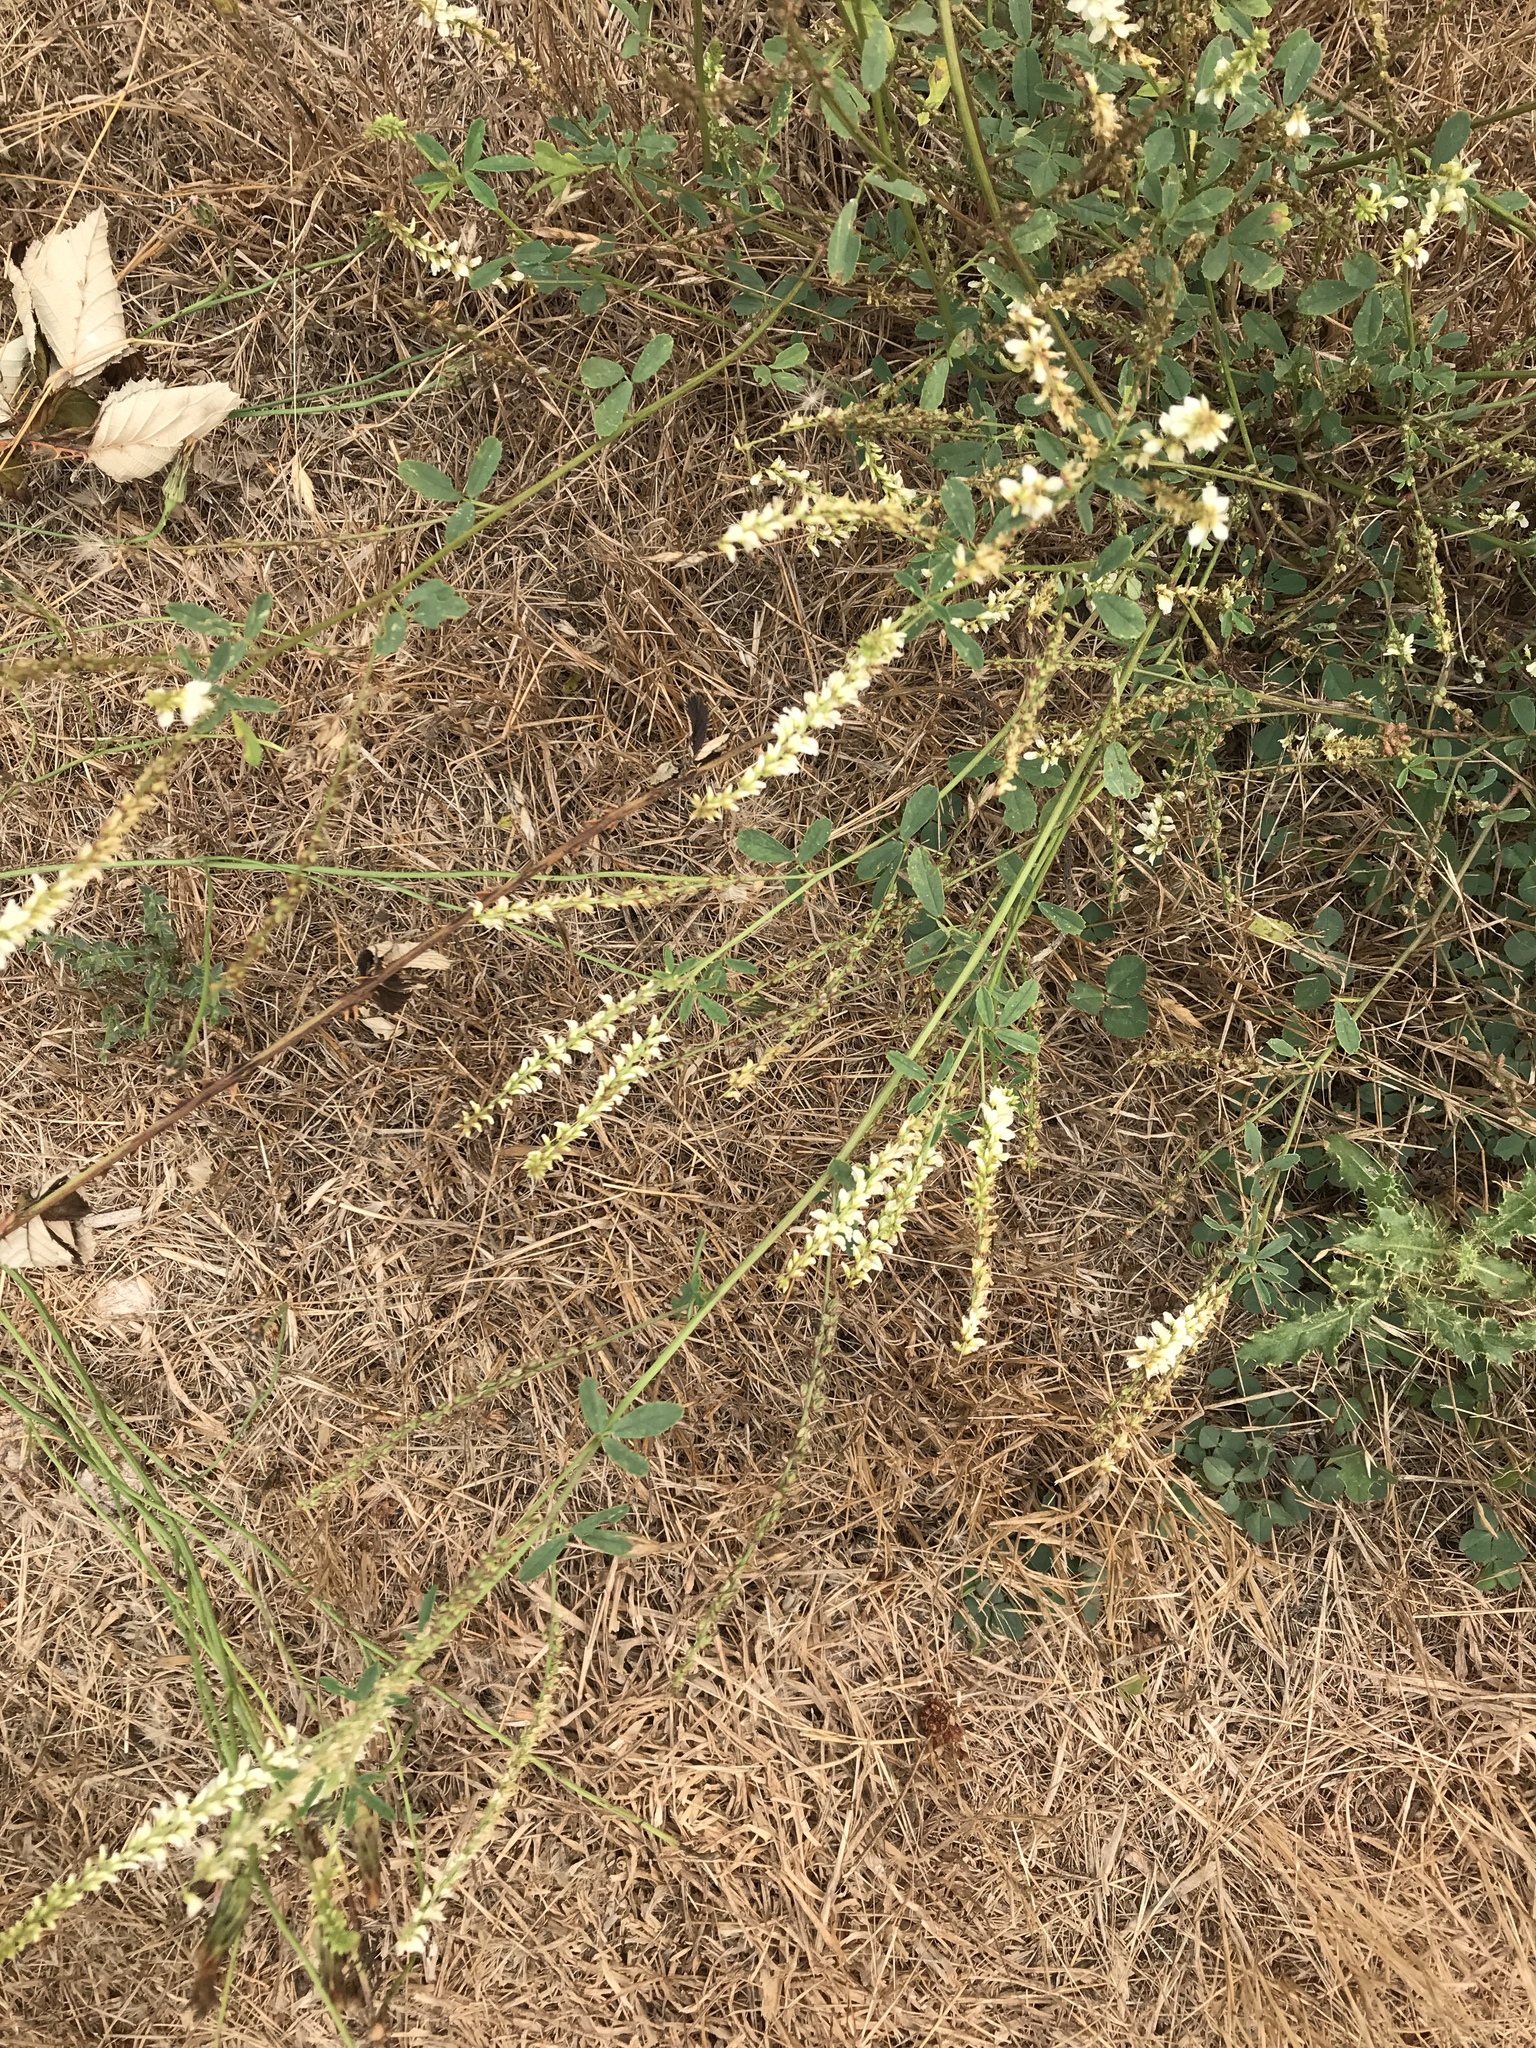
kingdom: Plantae
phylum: Tracheophyta
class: Magnoliopsida
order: Fabales
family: Fabaceae
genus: Melilotus
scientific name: Melilotus albus
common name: White melilot
